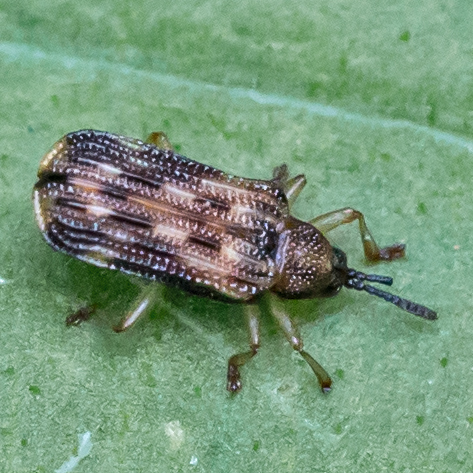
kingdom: Animalia
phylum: Arthropoda
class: Insecta
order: Coleoptera
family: Chrysomelidae
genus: Sumitrosis
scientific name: Sumitrosis inaequalis
